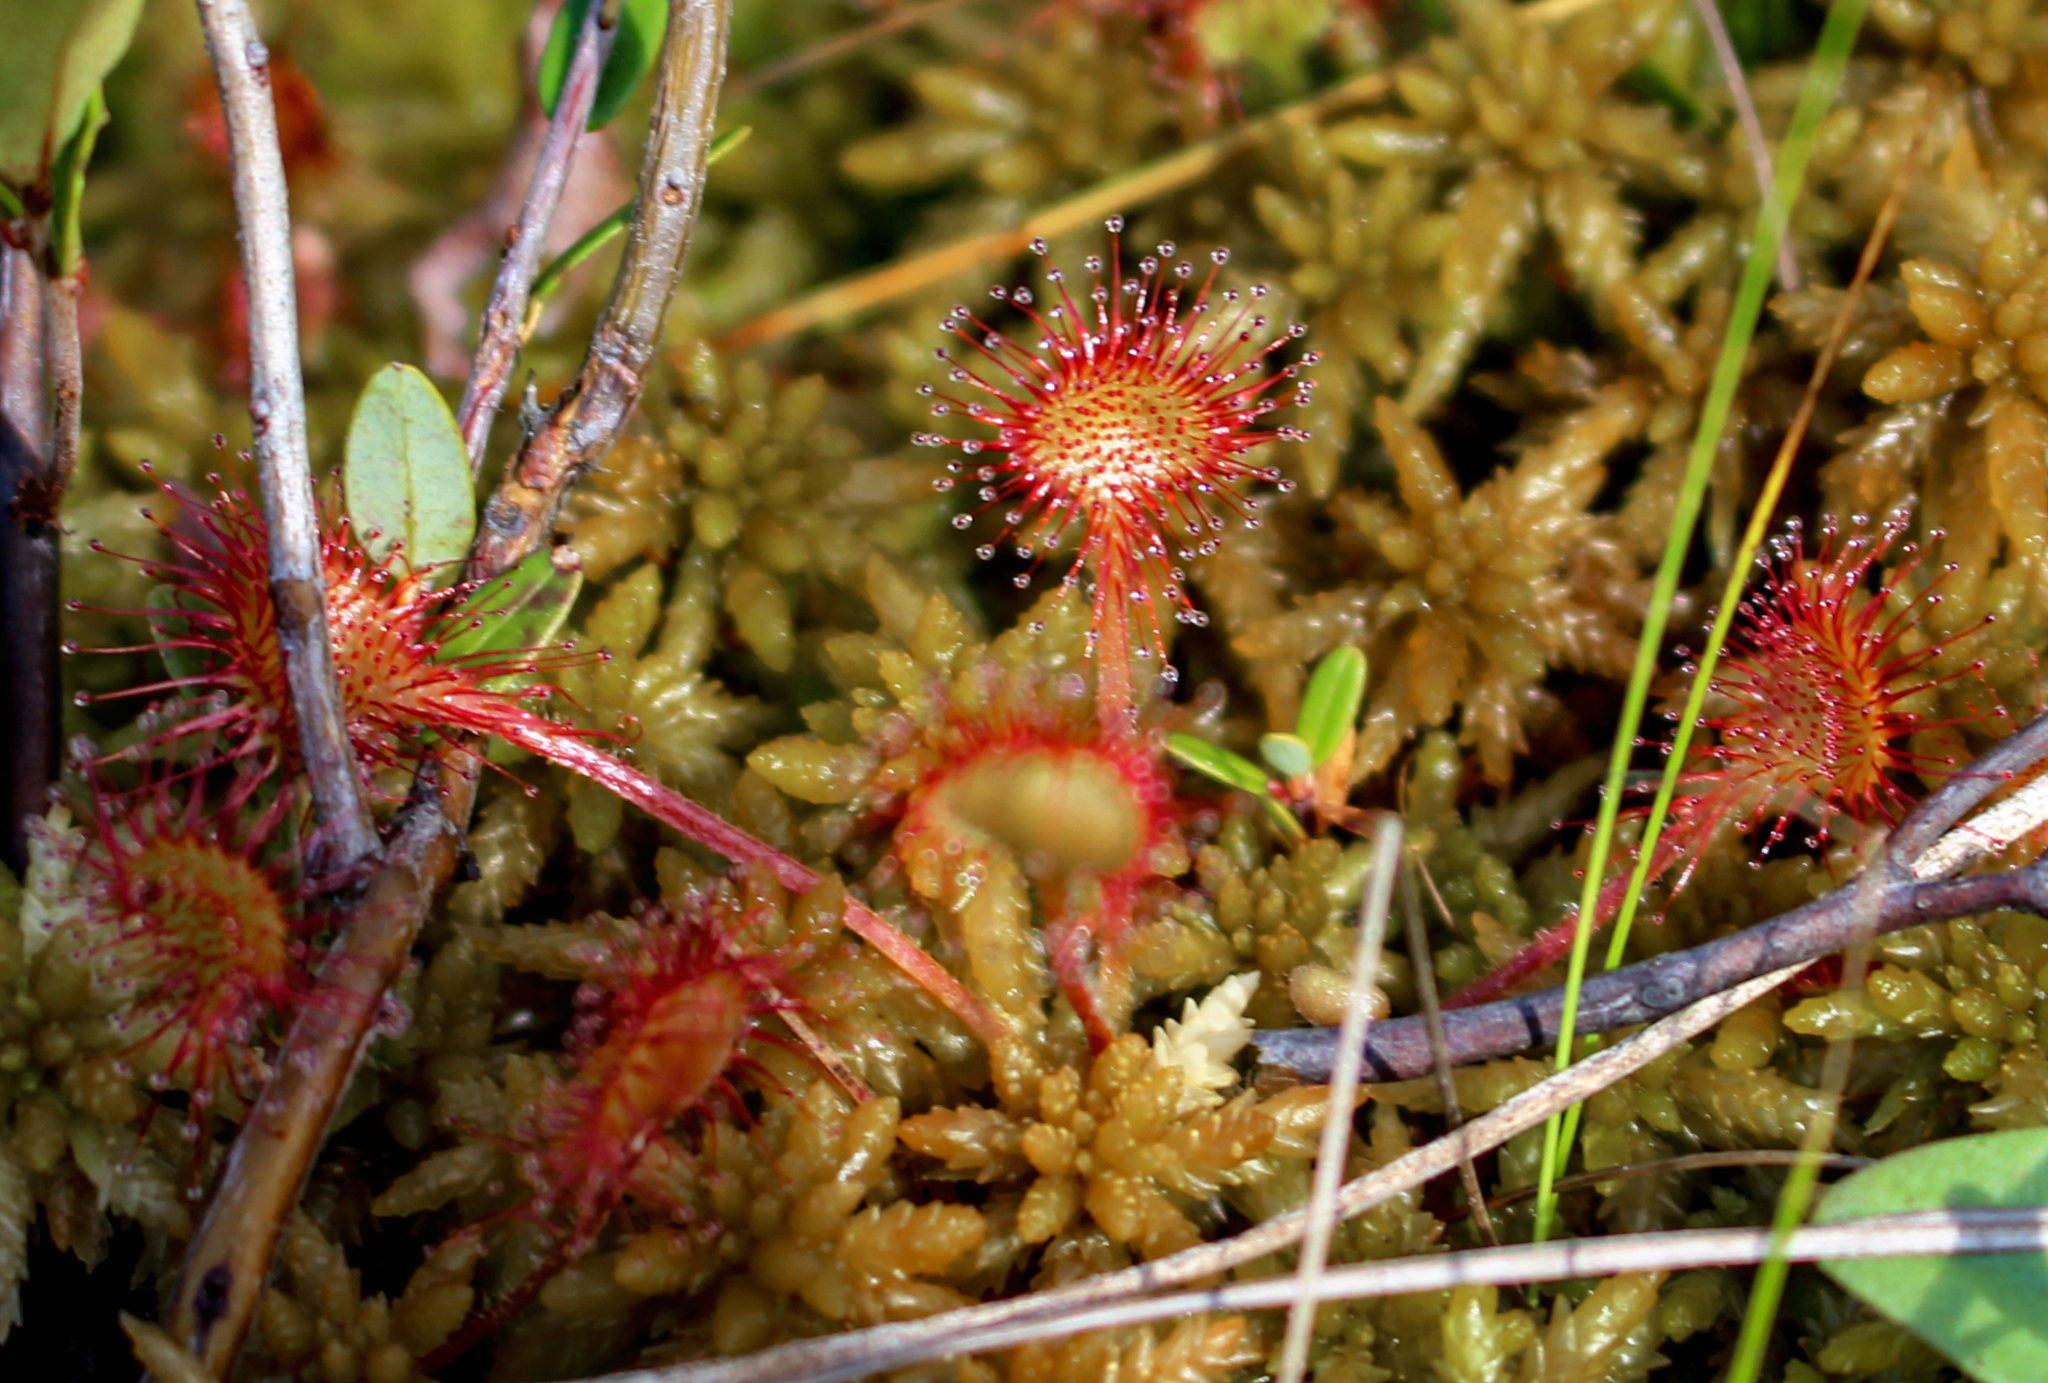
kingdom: Plantae
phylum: Tracheophyta
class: Magnoliopsida
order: Caryophyllales
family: Droseraceae
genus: Drosera
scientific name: Drosera rotundifolia
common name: Round-leaved sundew
